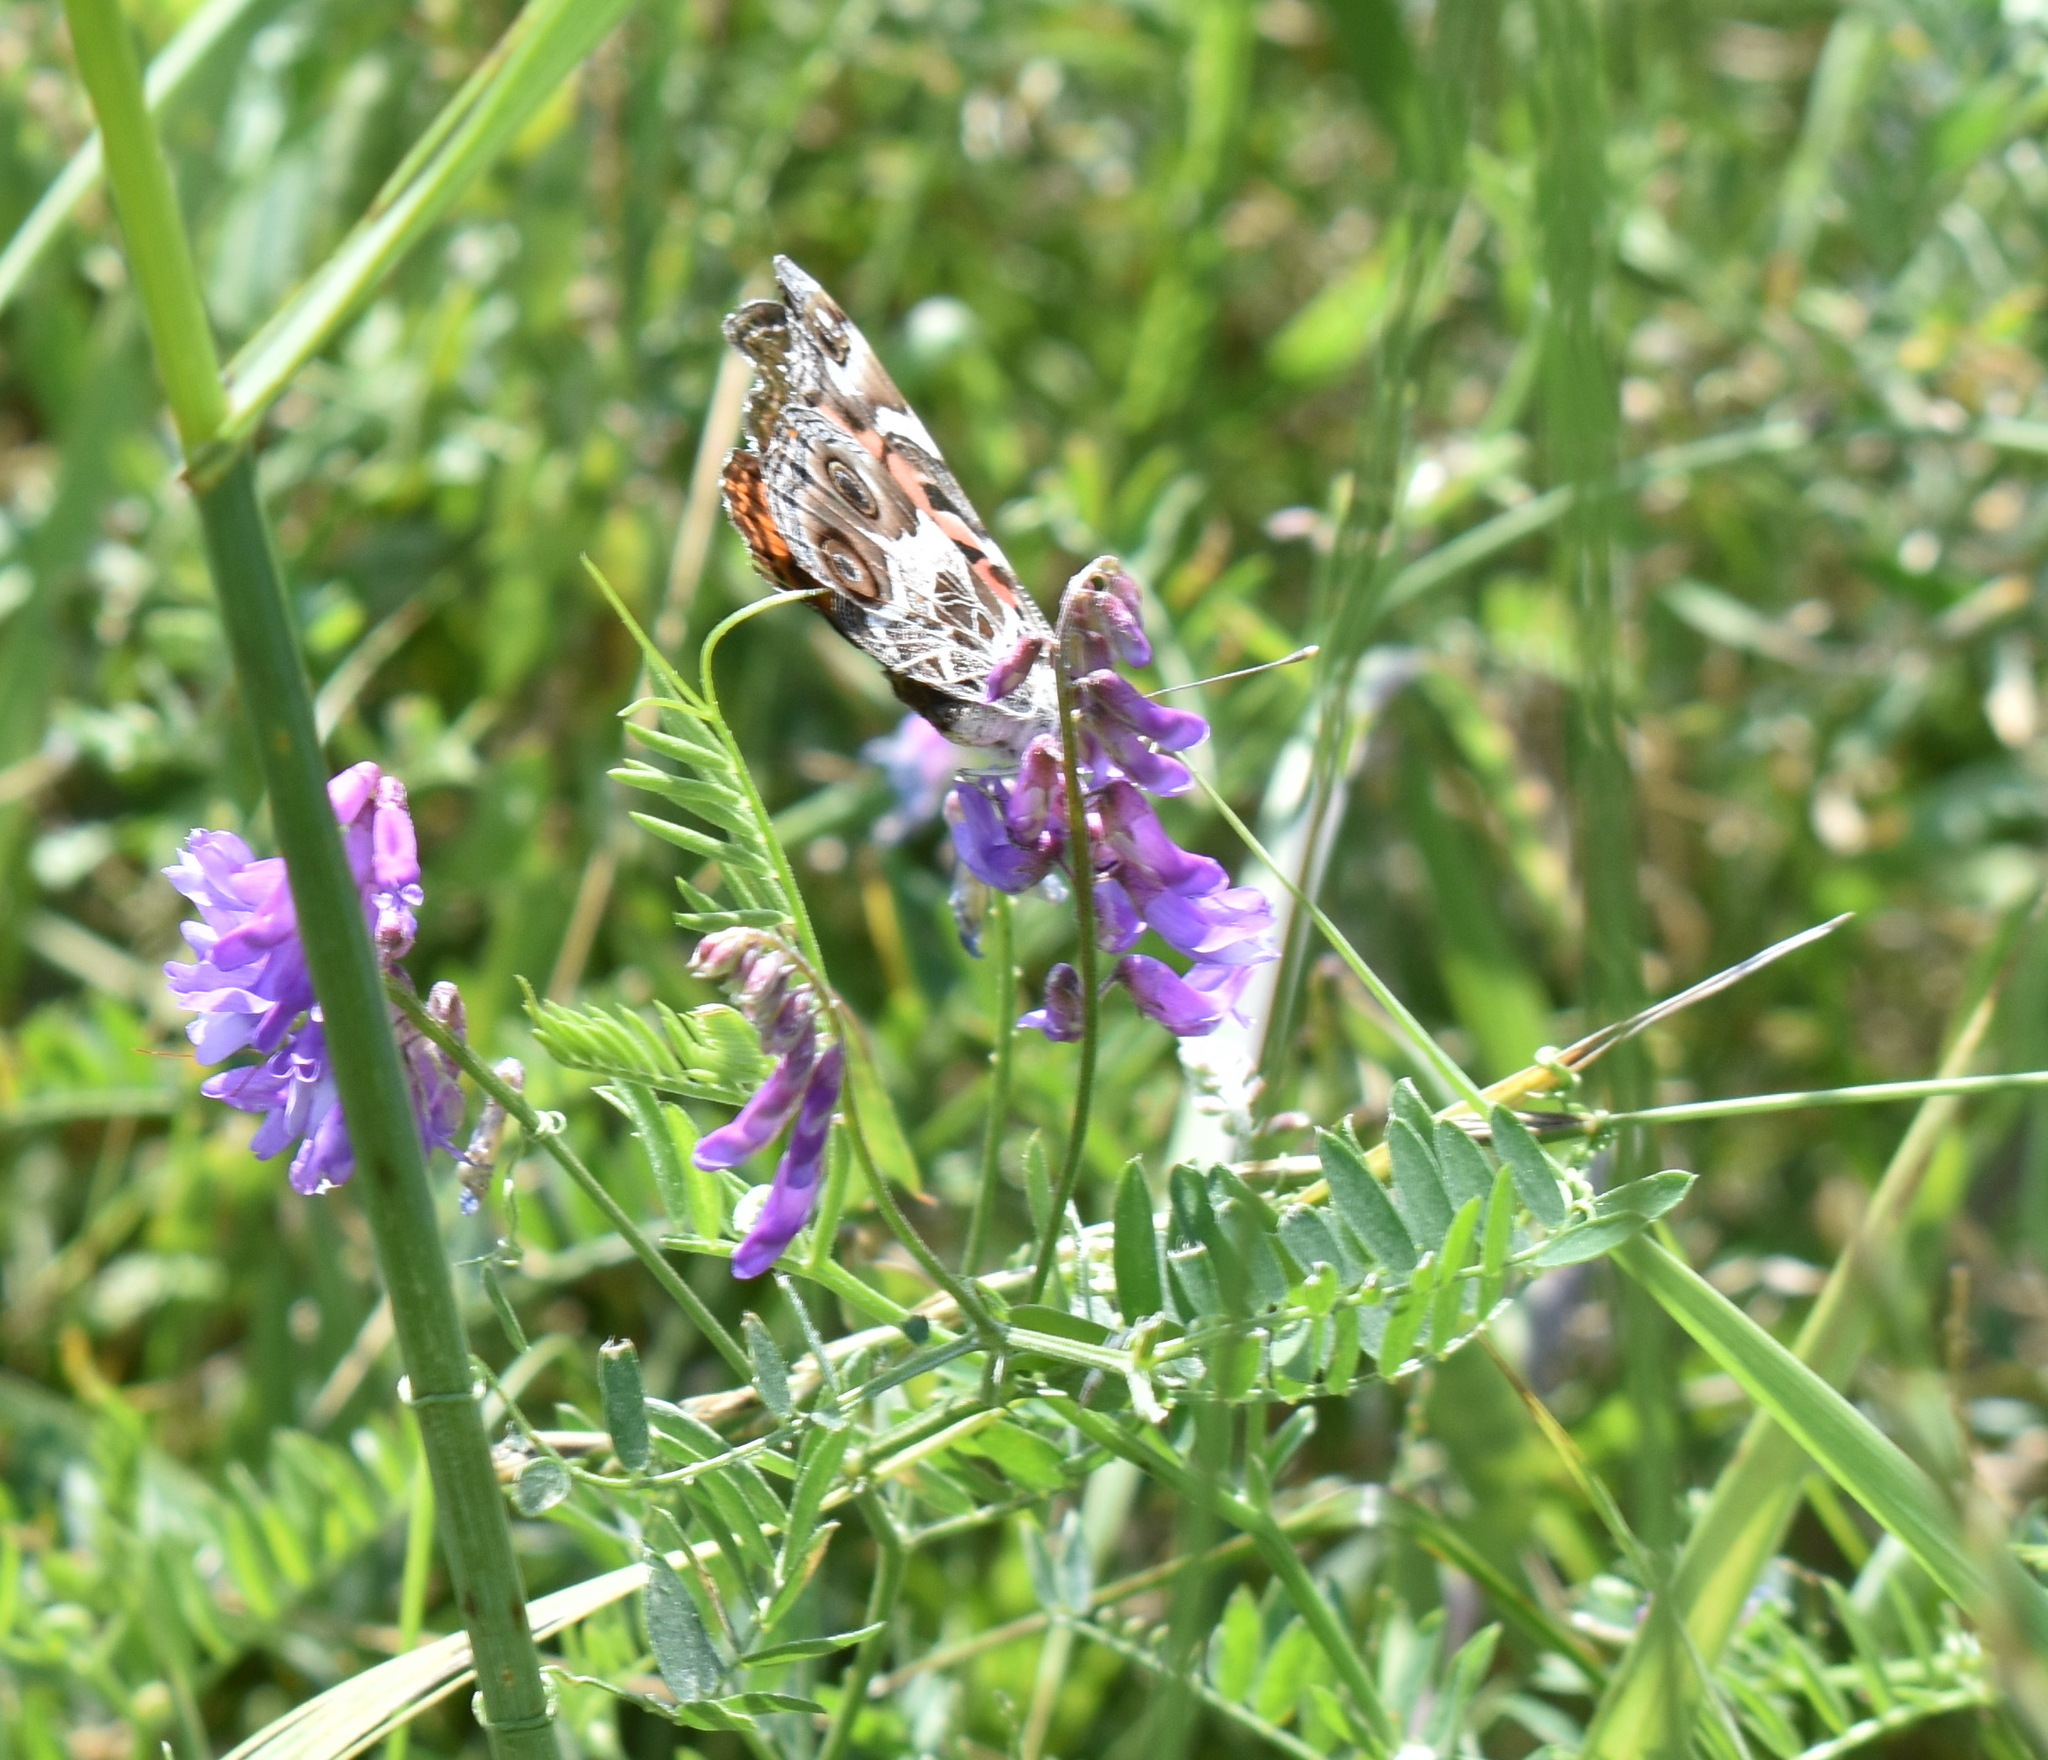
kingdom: Animalia
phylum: Arthropoda
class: Insecta
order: Lepidoptera
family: Nymphalidae
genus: Vanessa
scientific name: Vanessa virginiensis
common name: American lady
